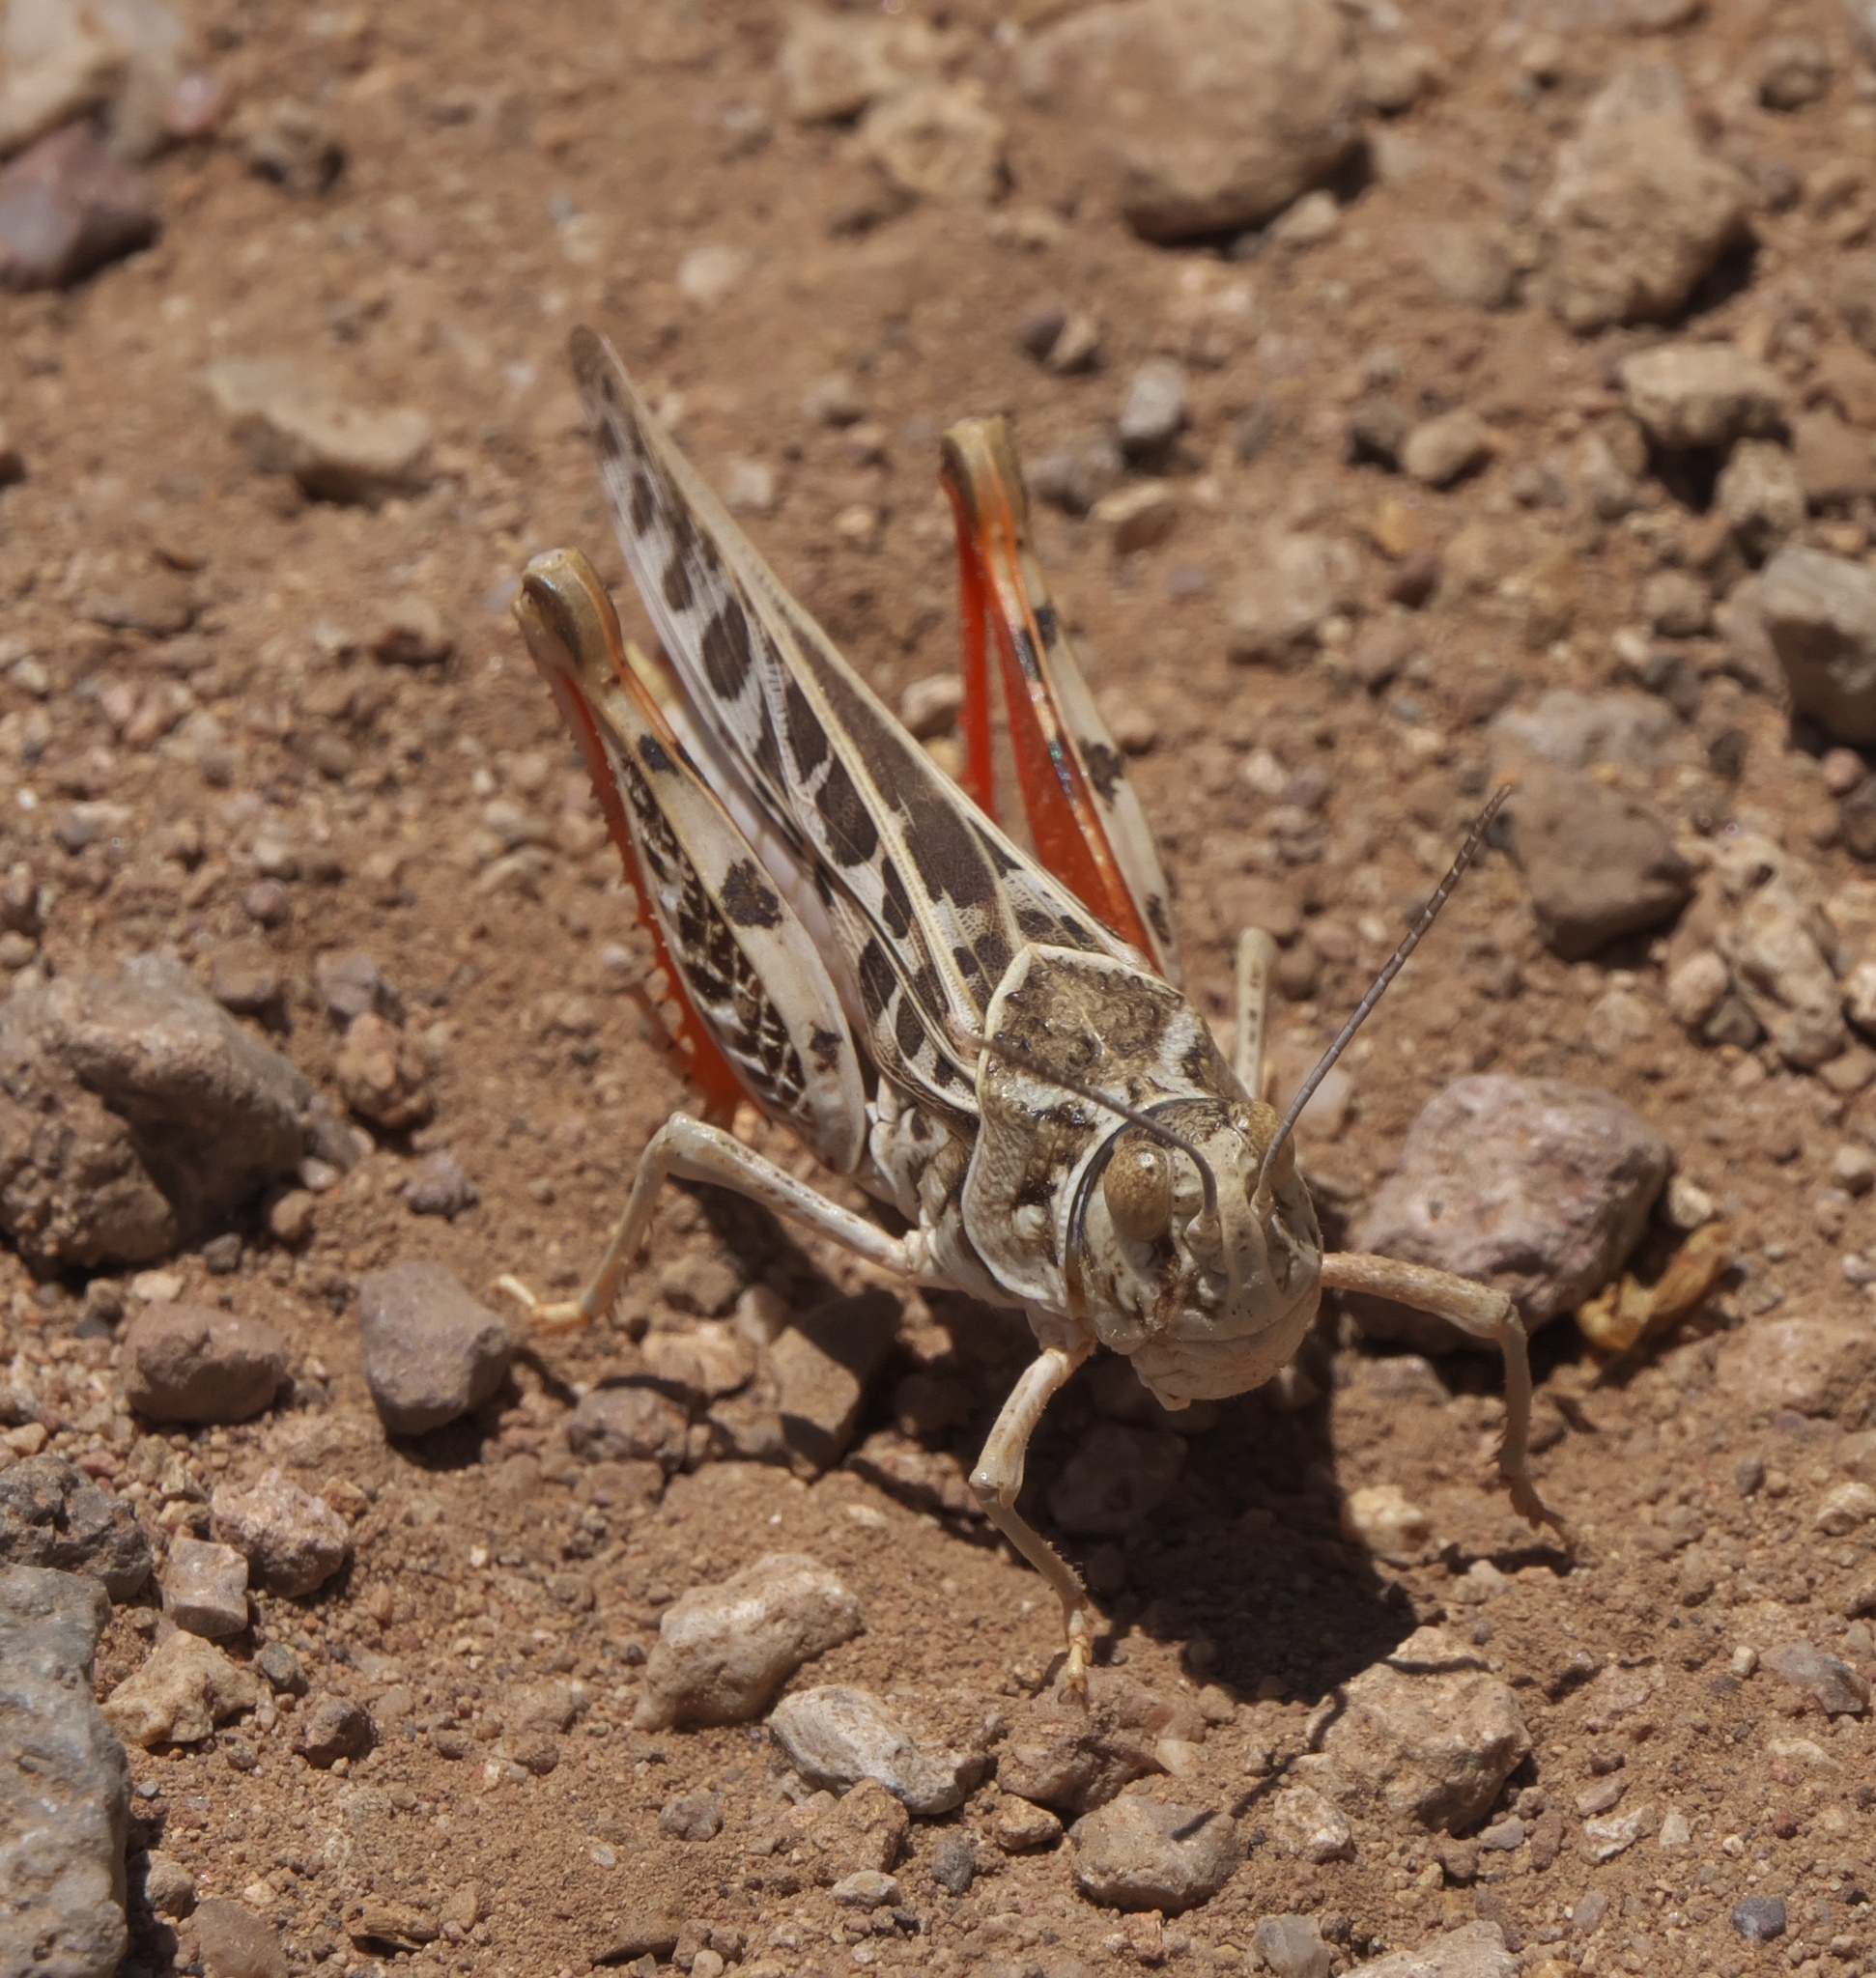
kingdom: Animalia
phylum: Arthropoda
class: Insecta
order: Orthoptera
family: Acrididae
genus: Xanthippus
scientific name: Xanthippus corallipes
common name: Redshanked grasshopper
